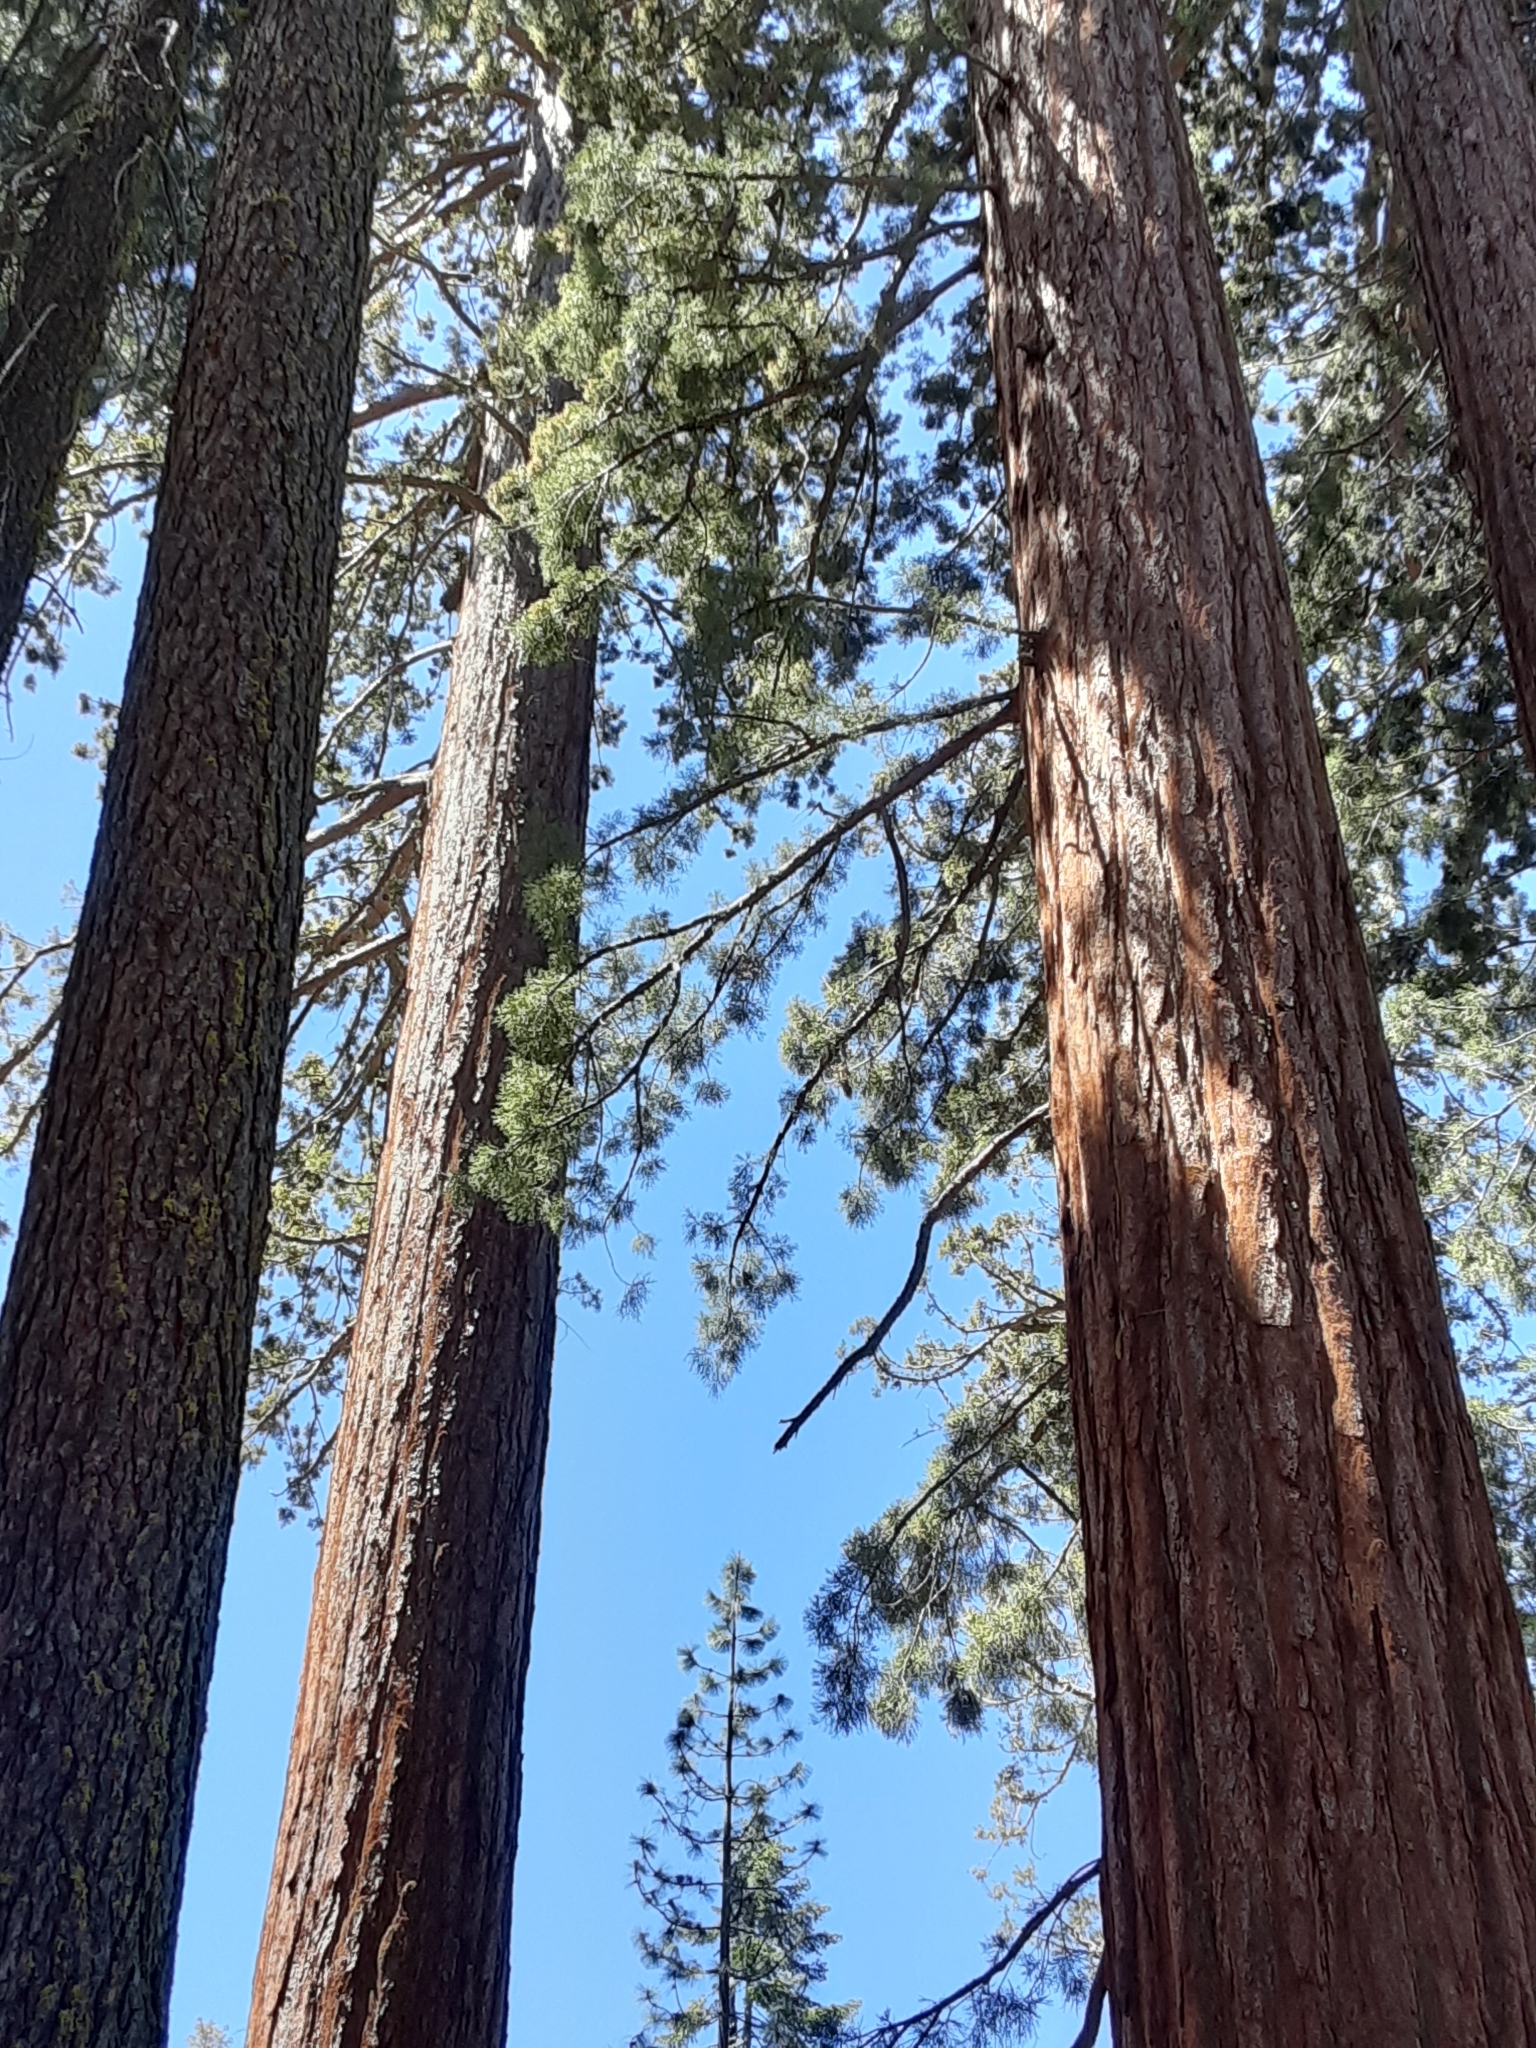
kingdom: Plantae
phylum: Tracheophyta
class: Pinopsida
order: Pinales
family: Cupressaceae
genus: Sequoiadendron
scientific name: Sequoiadendron giganteum
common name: Wellingtonia
